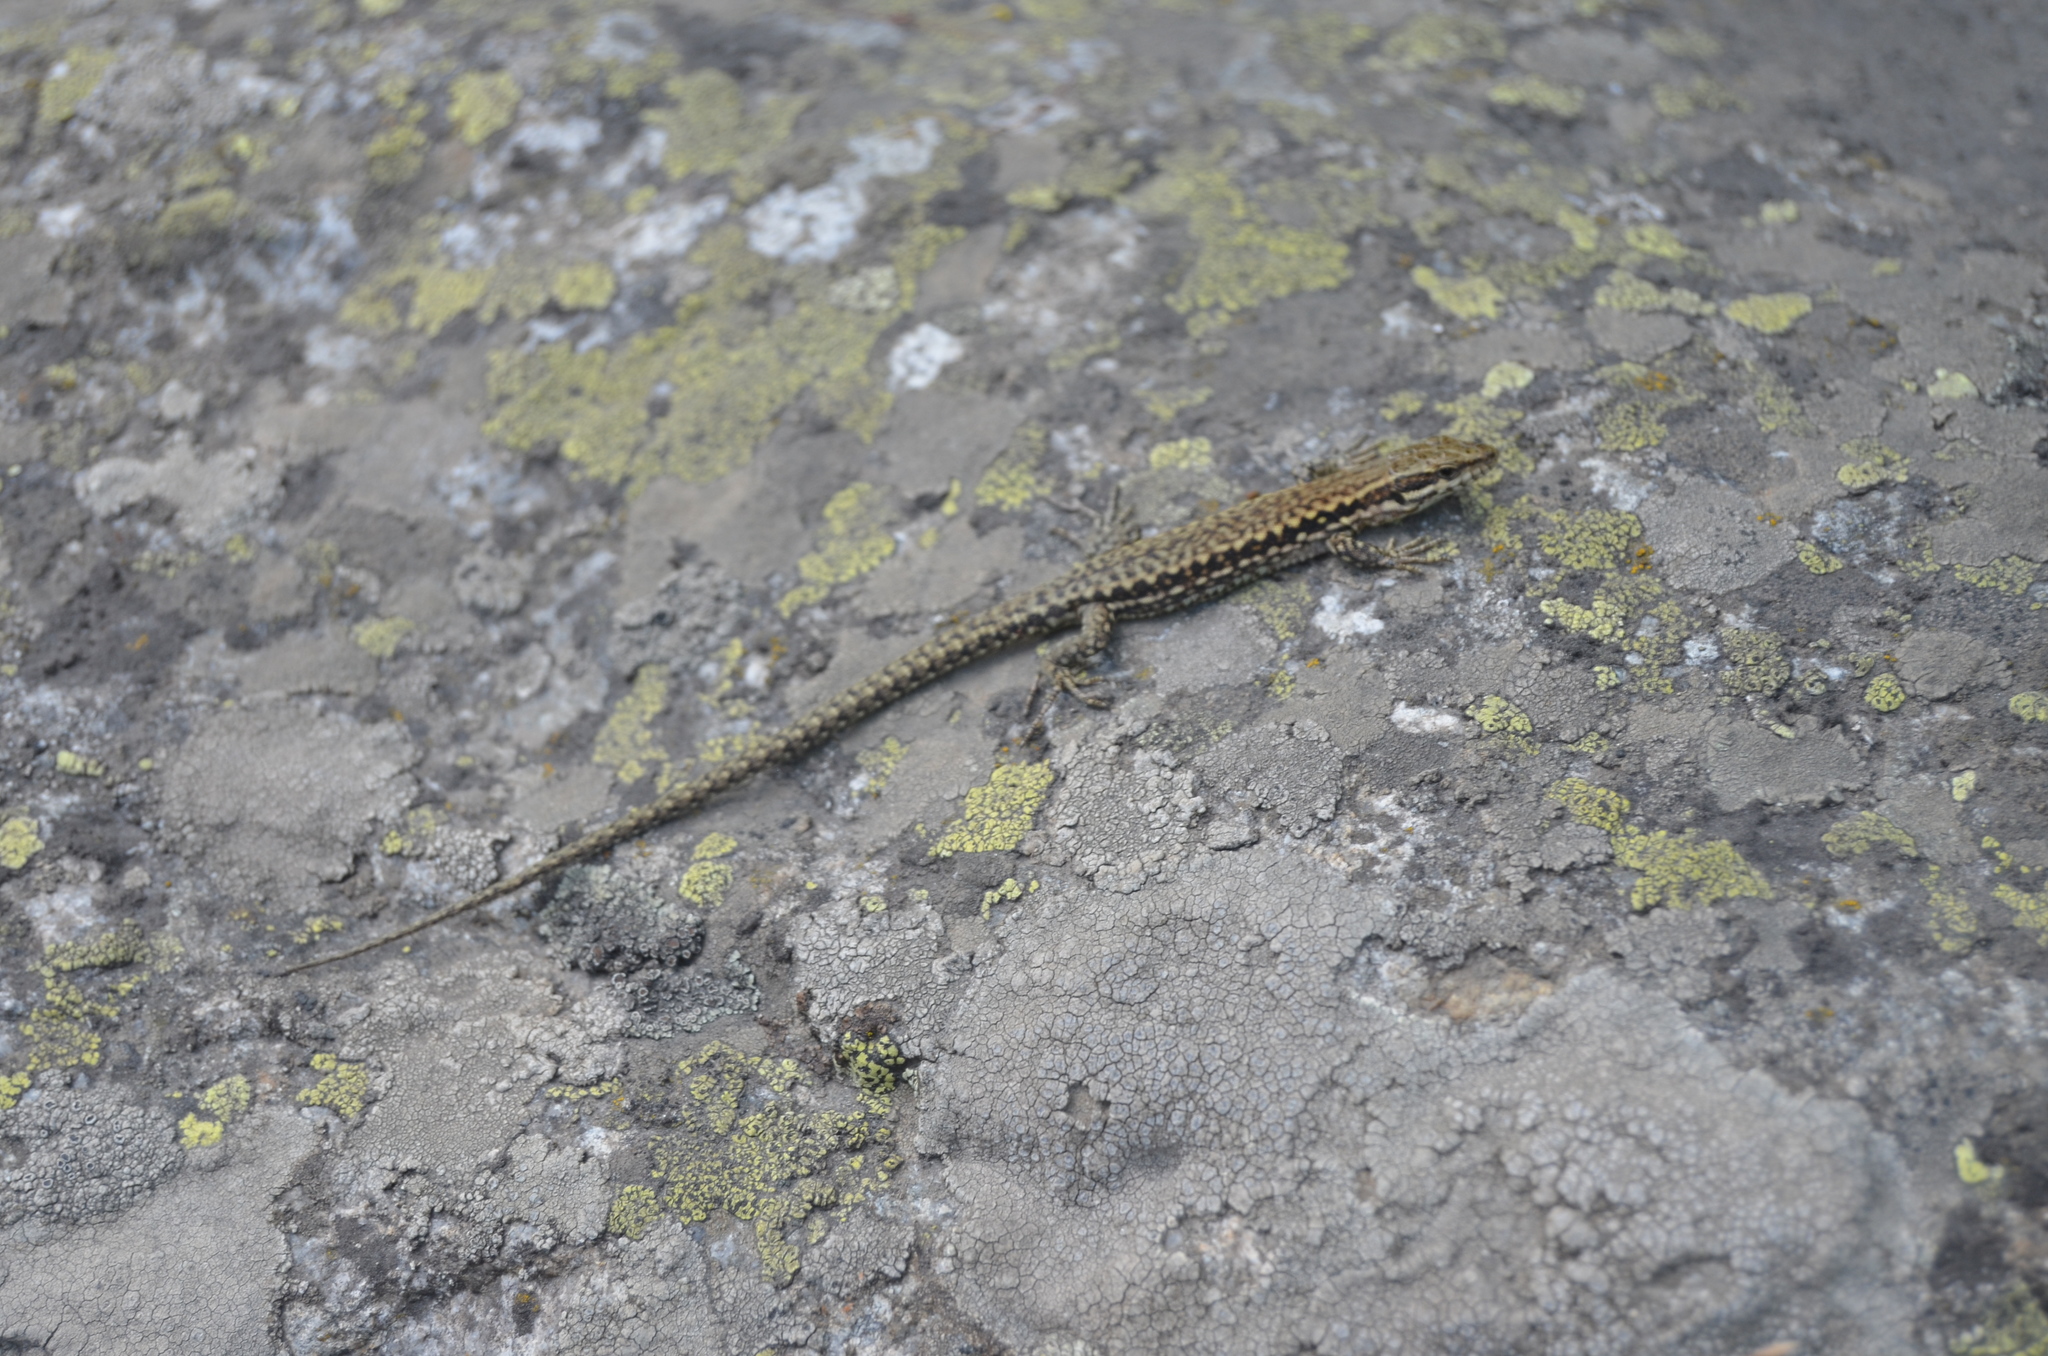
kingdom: Animalia
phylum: Chordata
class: Squamata
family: Lacertidae
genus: Podarcis
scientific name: Podarcis muralis
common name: Common wall lizard
